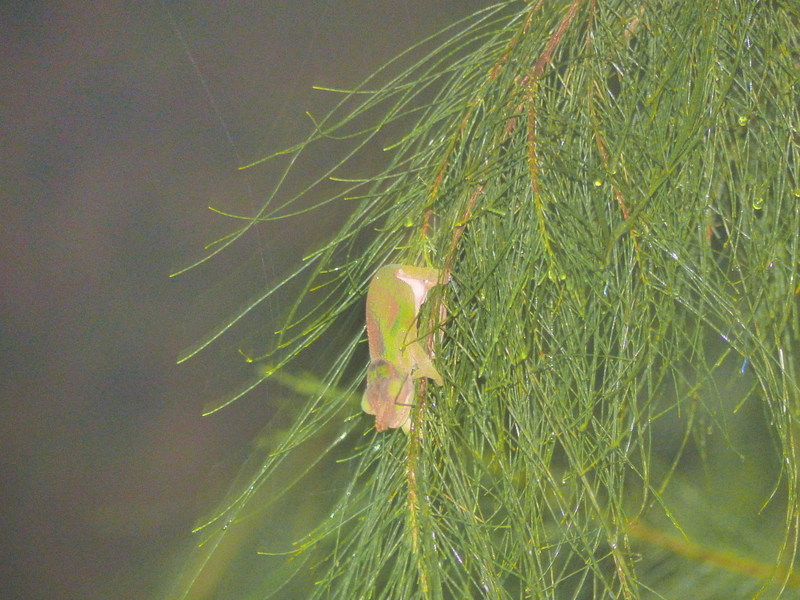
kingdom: Animalia
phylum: Chordata
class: Squamata
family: Chamaeleonidae
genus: Kinyongia
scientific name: Kinyongia vosseleri
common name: Vosseler's blade-horned chameleon
